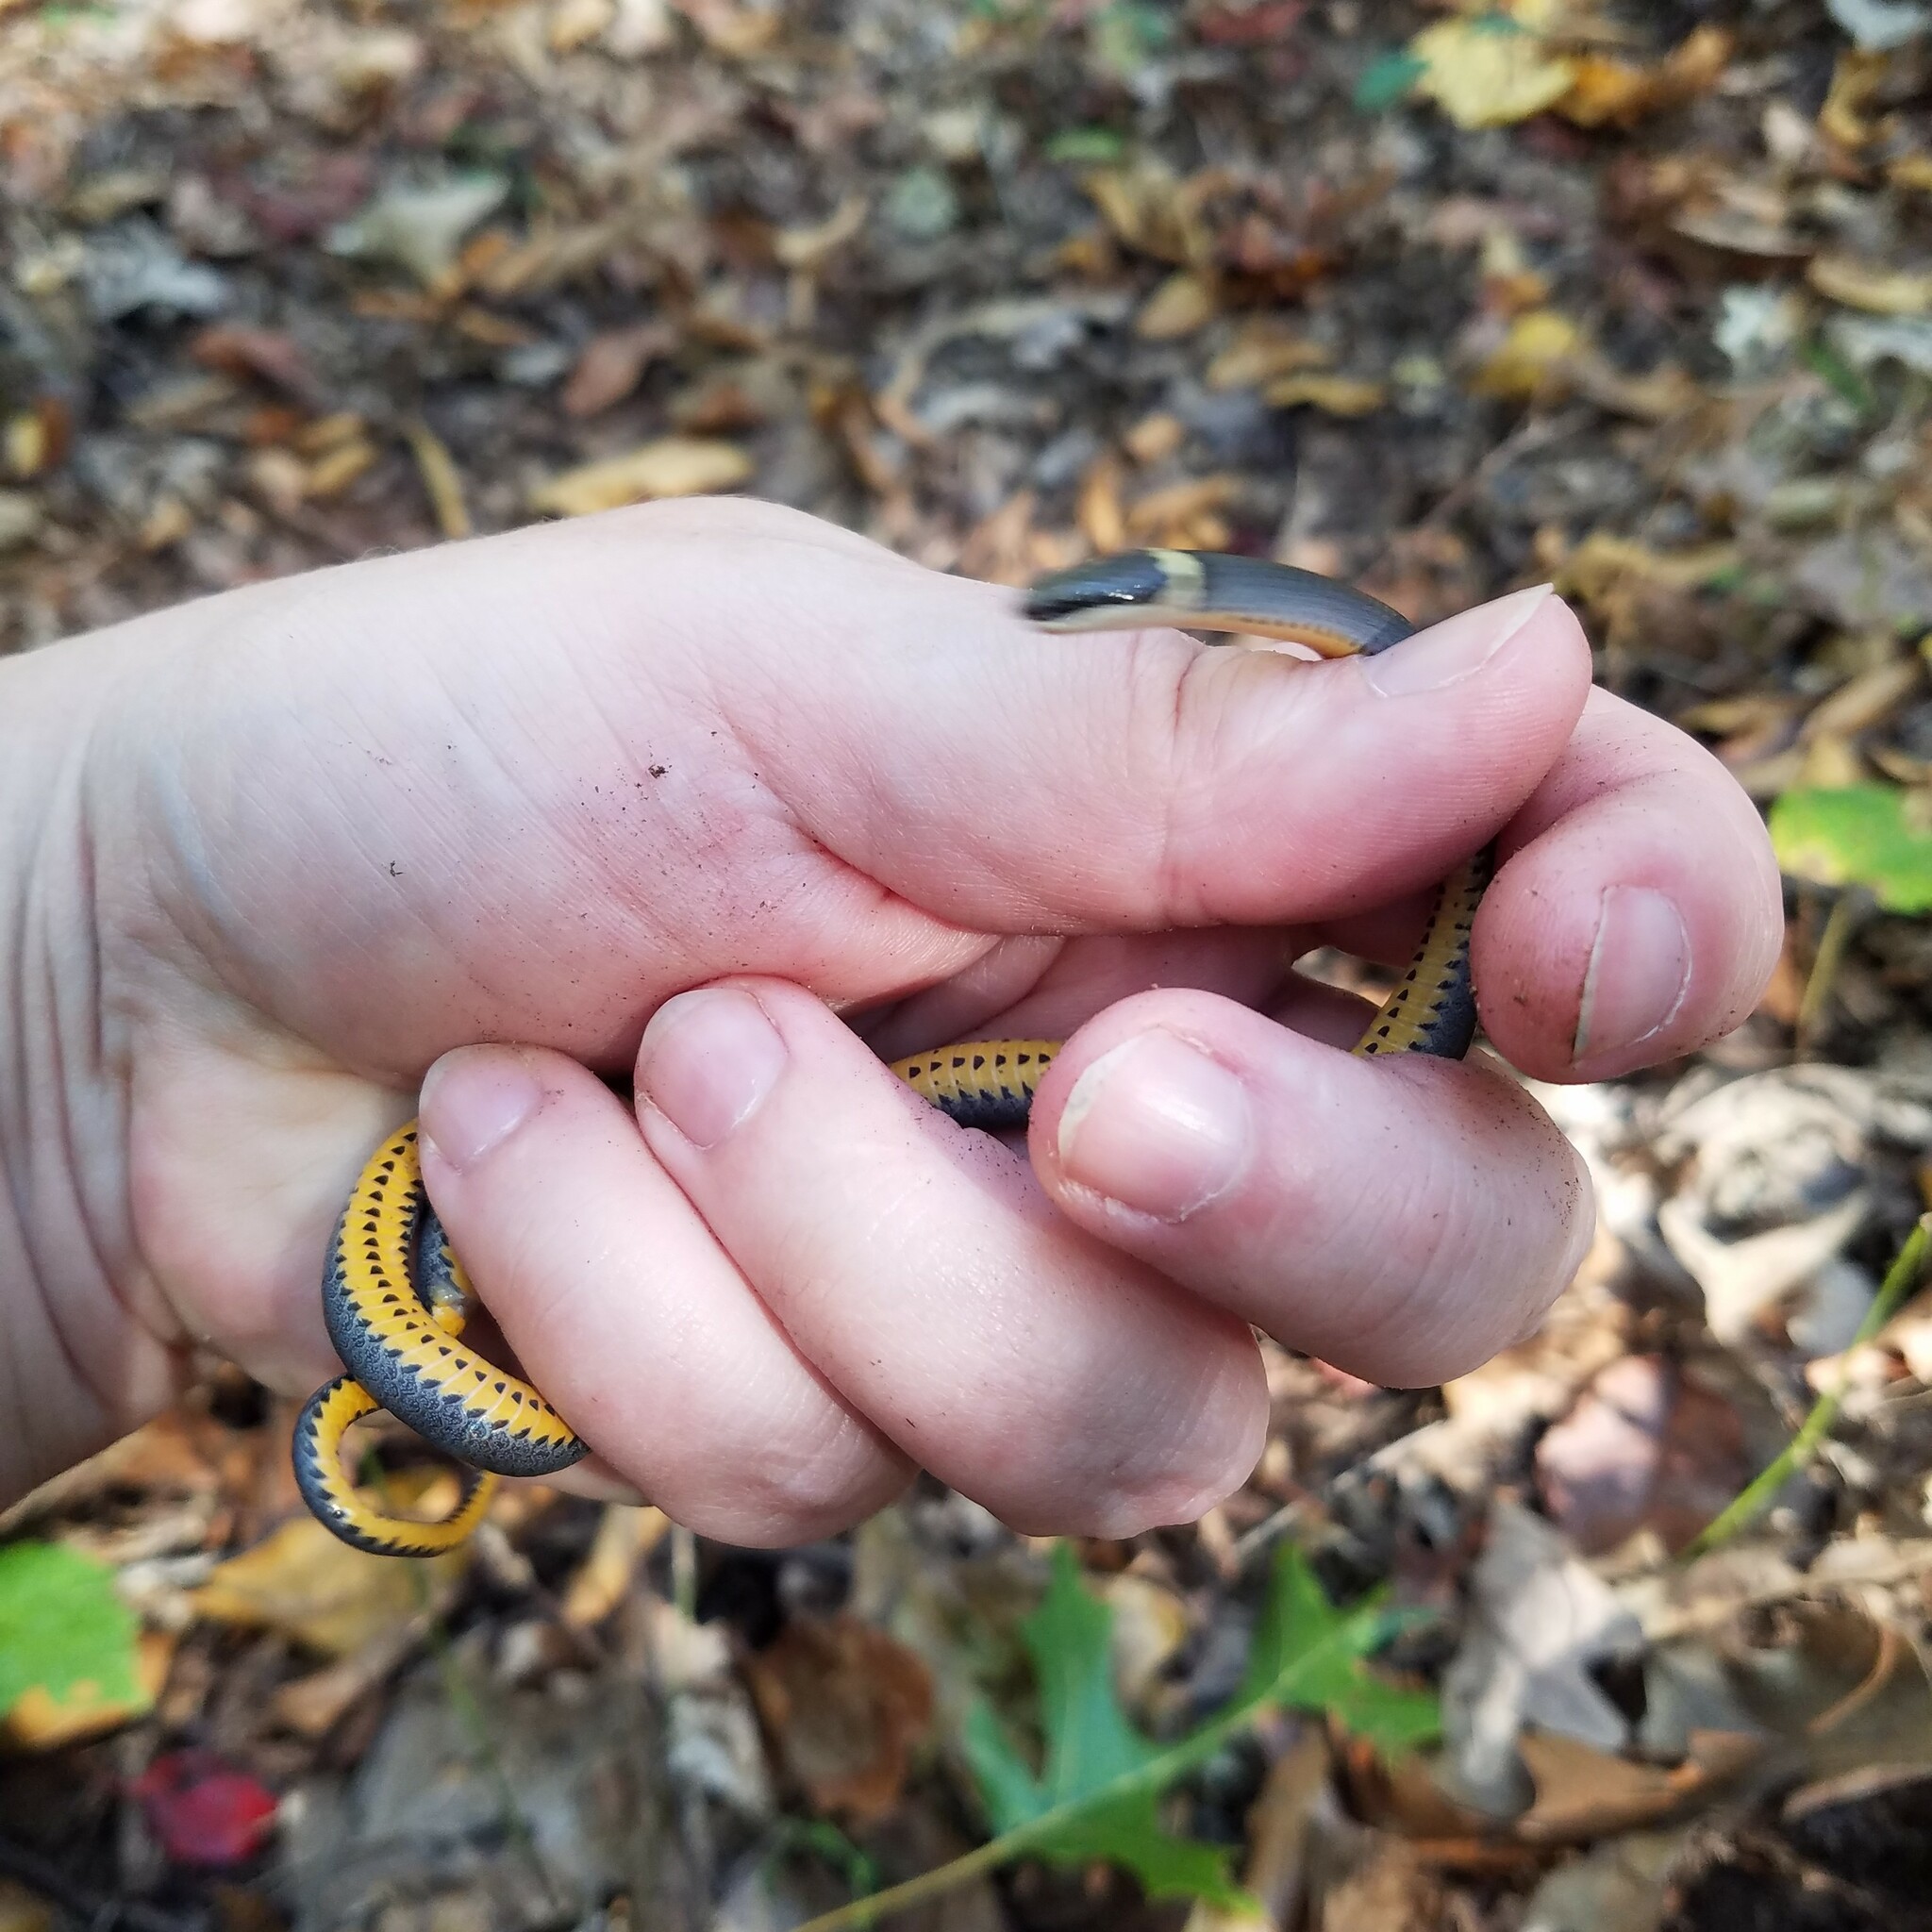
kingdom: Animalia
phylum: Chordata
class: Squamata
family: Colubridae
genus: Diadophis
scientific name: Diadophis punctatus
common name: Ringneck snake
